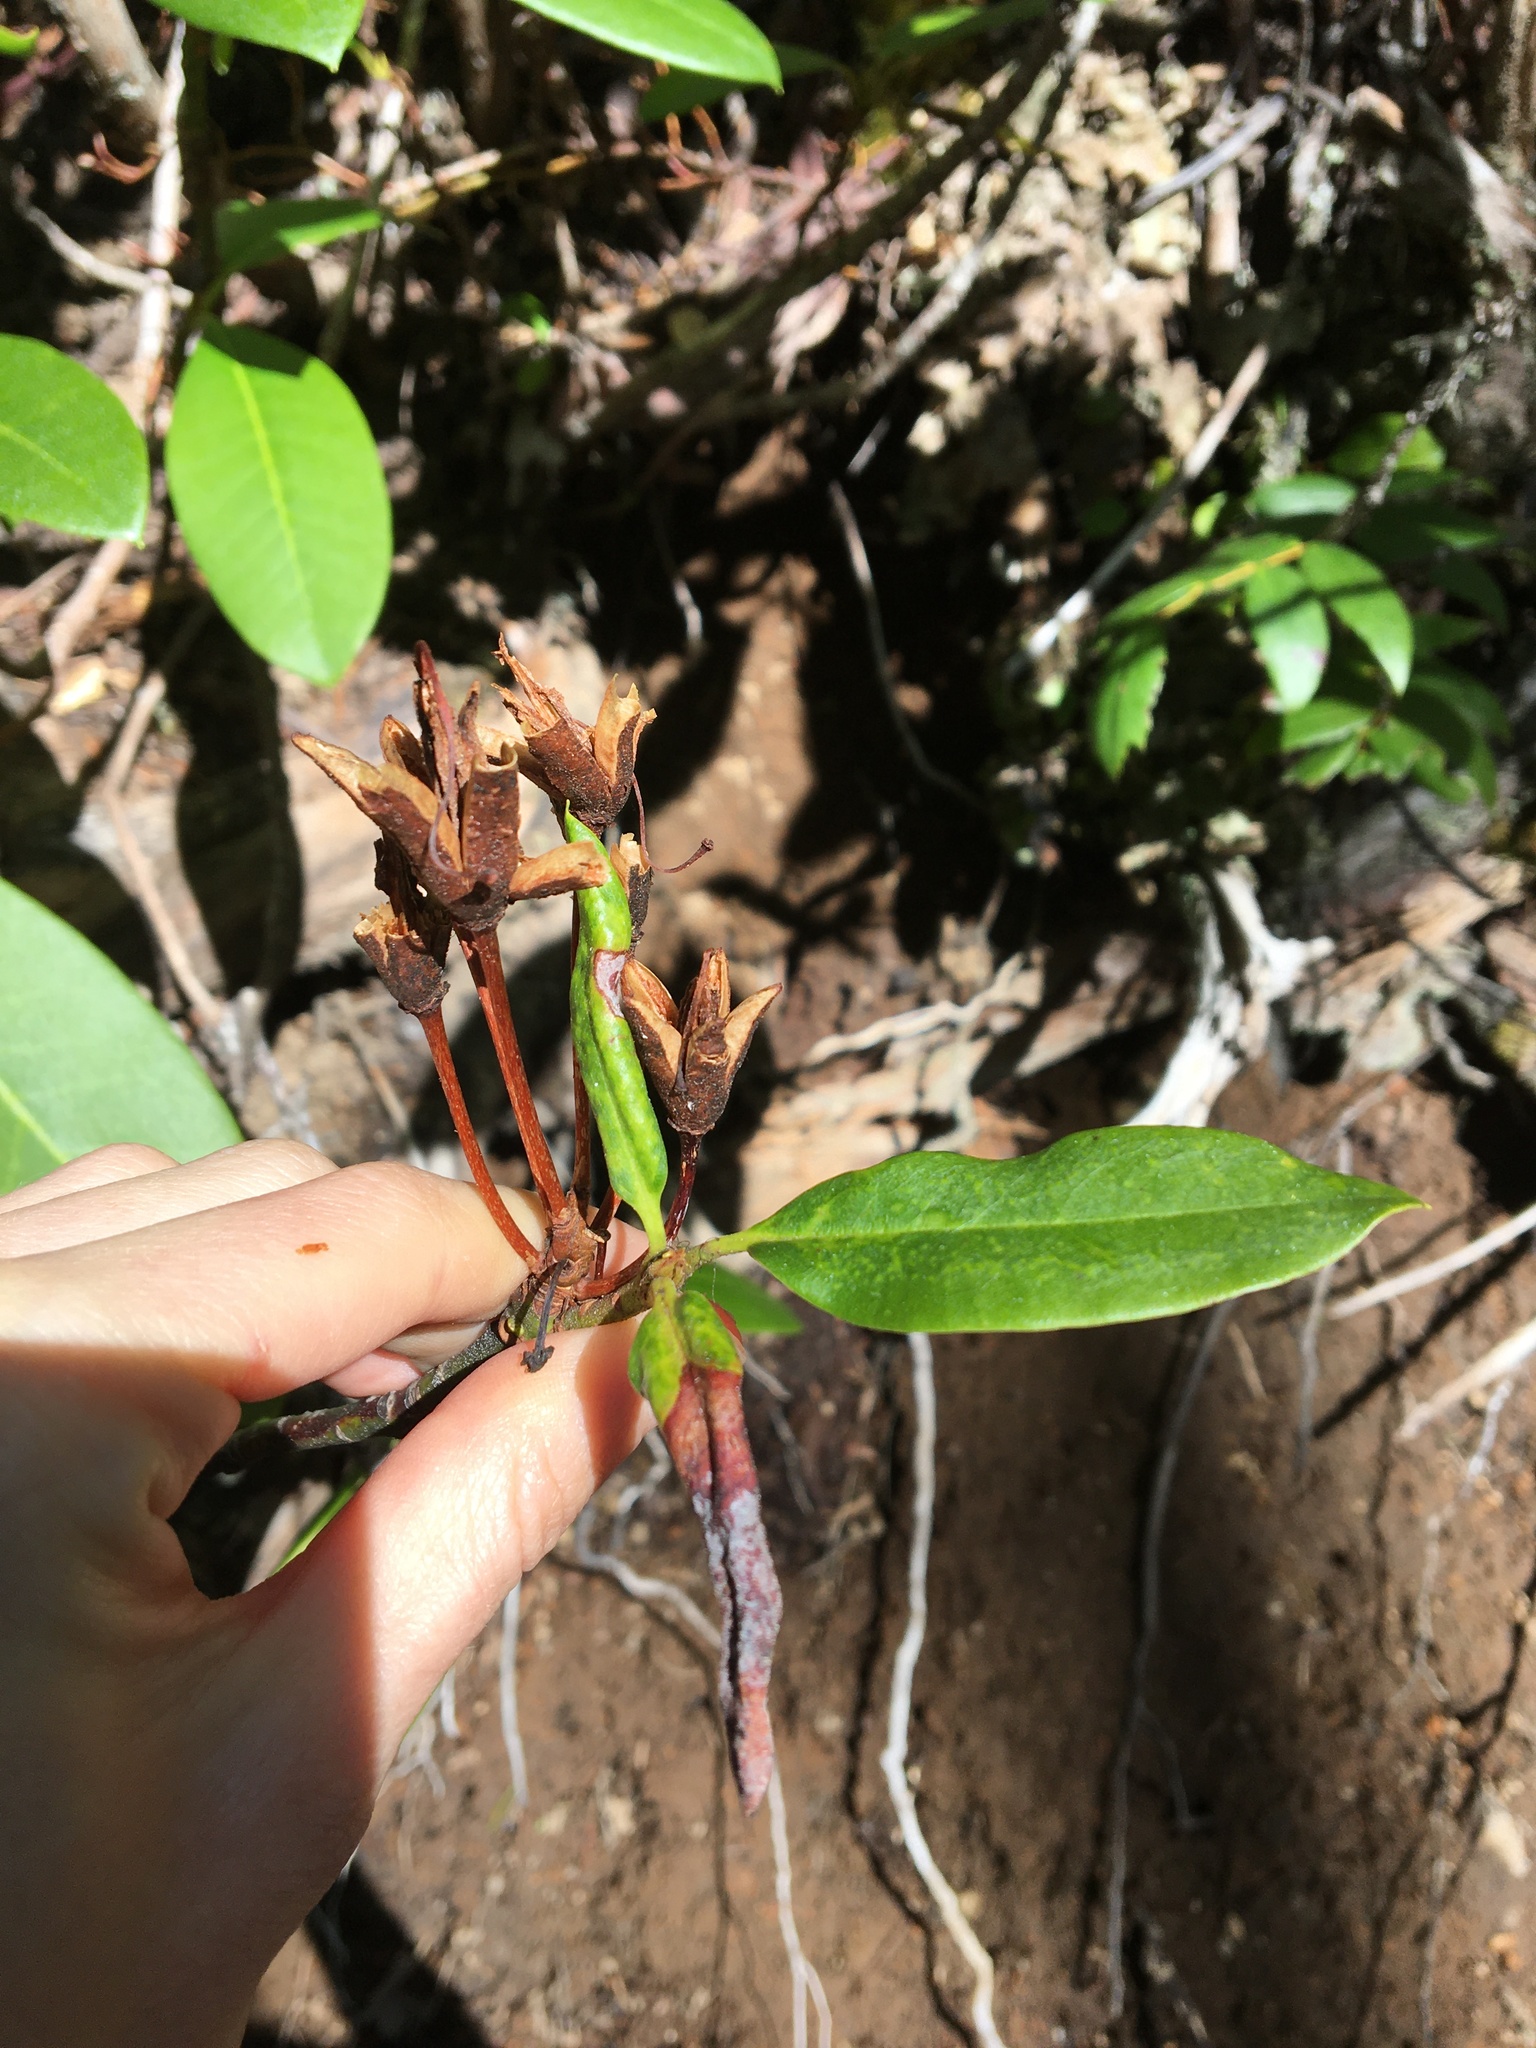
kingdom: Plantae
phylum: Tracheophyta
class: Magnoliopsida
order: Ericales
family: Ericaceae
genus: Rhododendron
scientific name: Rhododendron macrophyllum
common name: California rose bay
